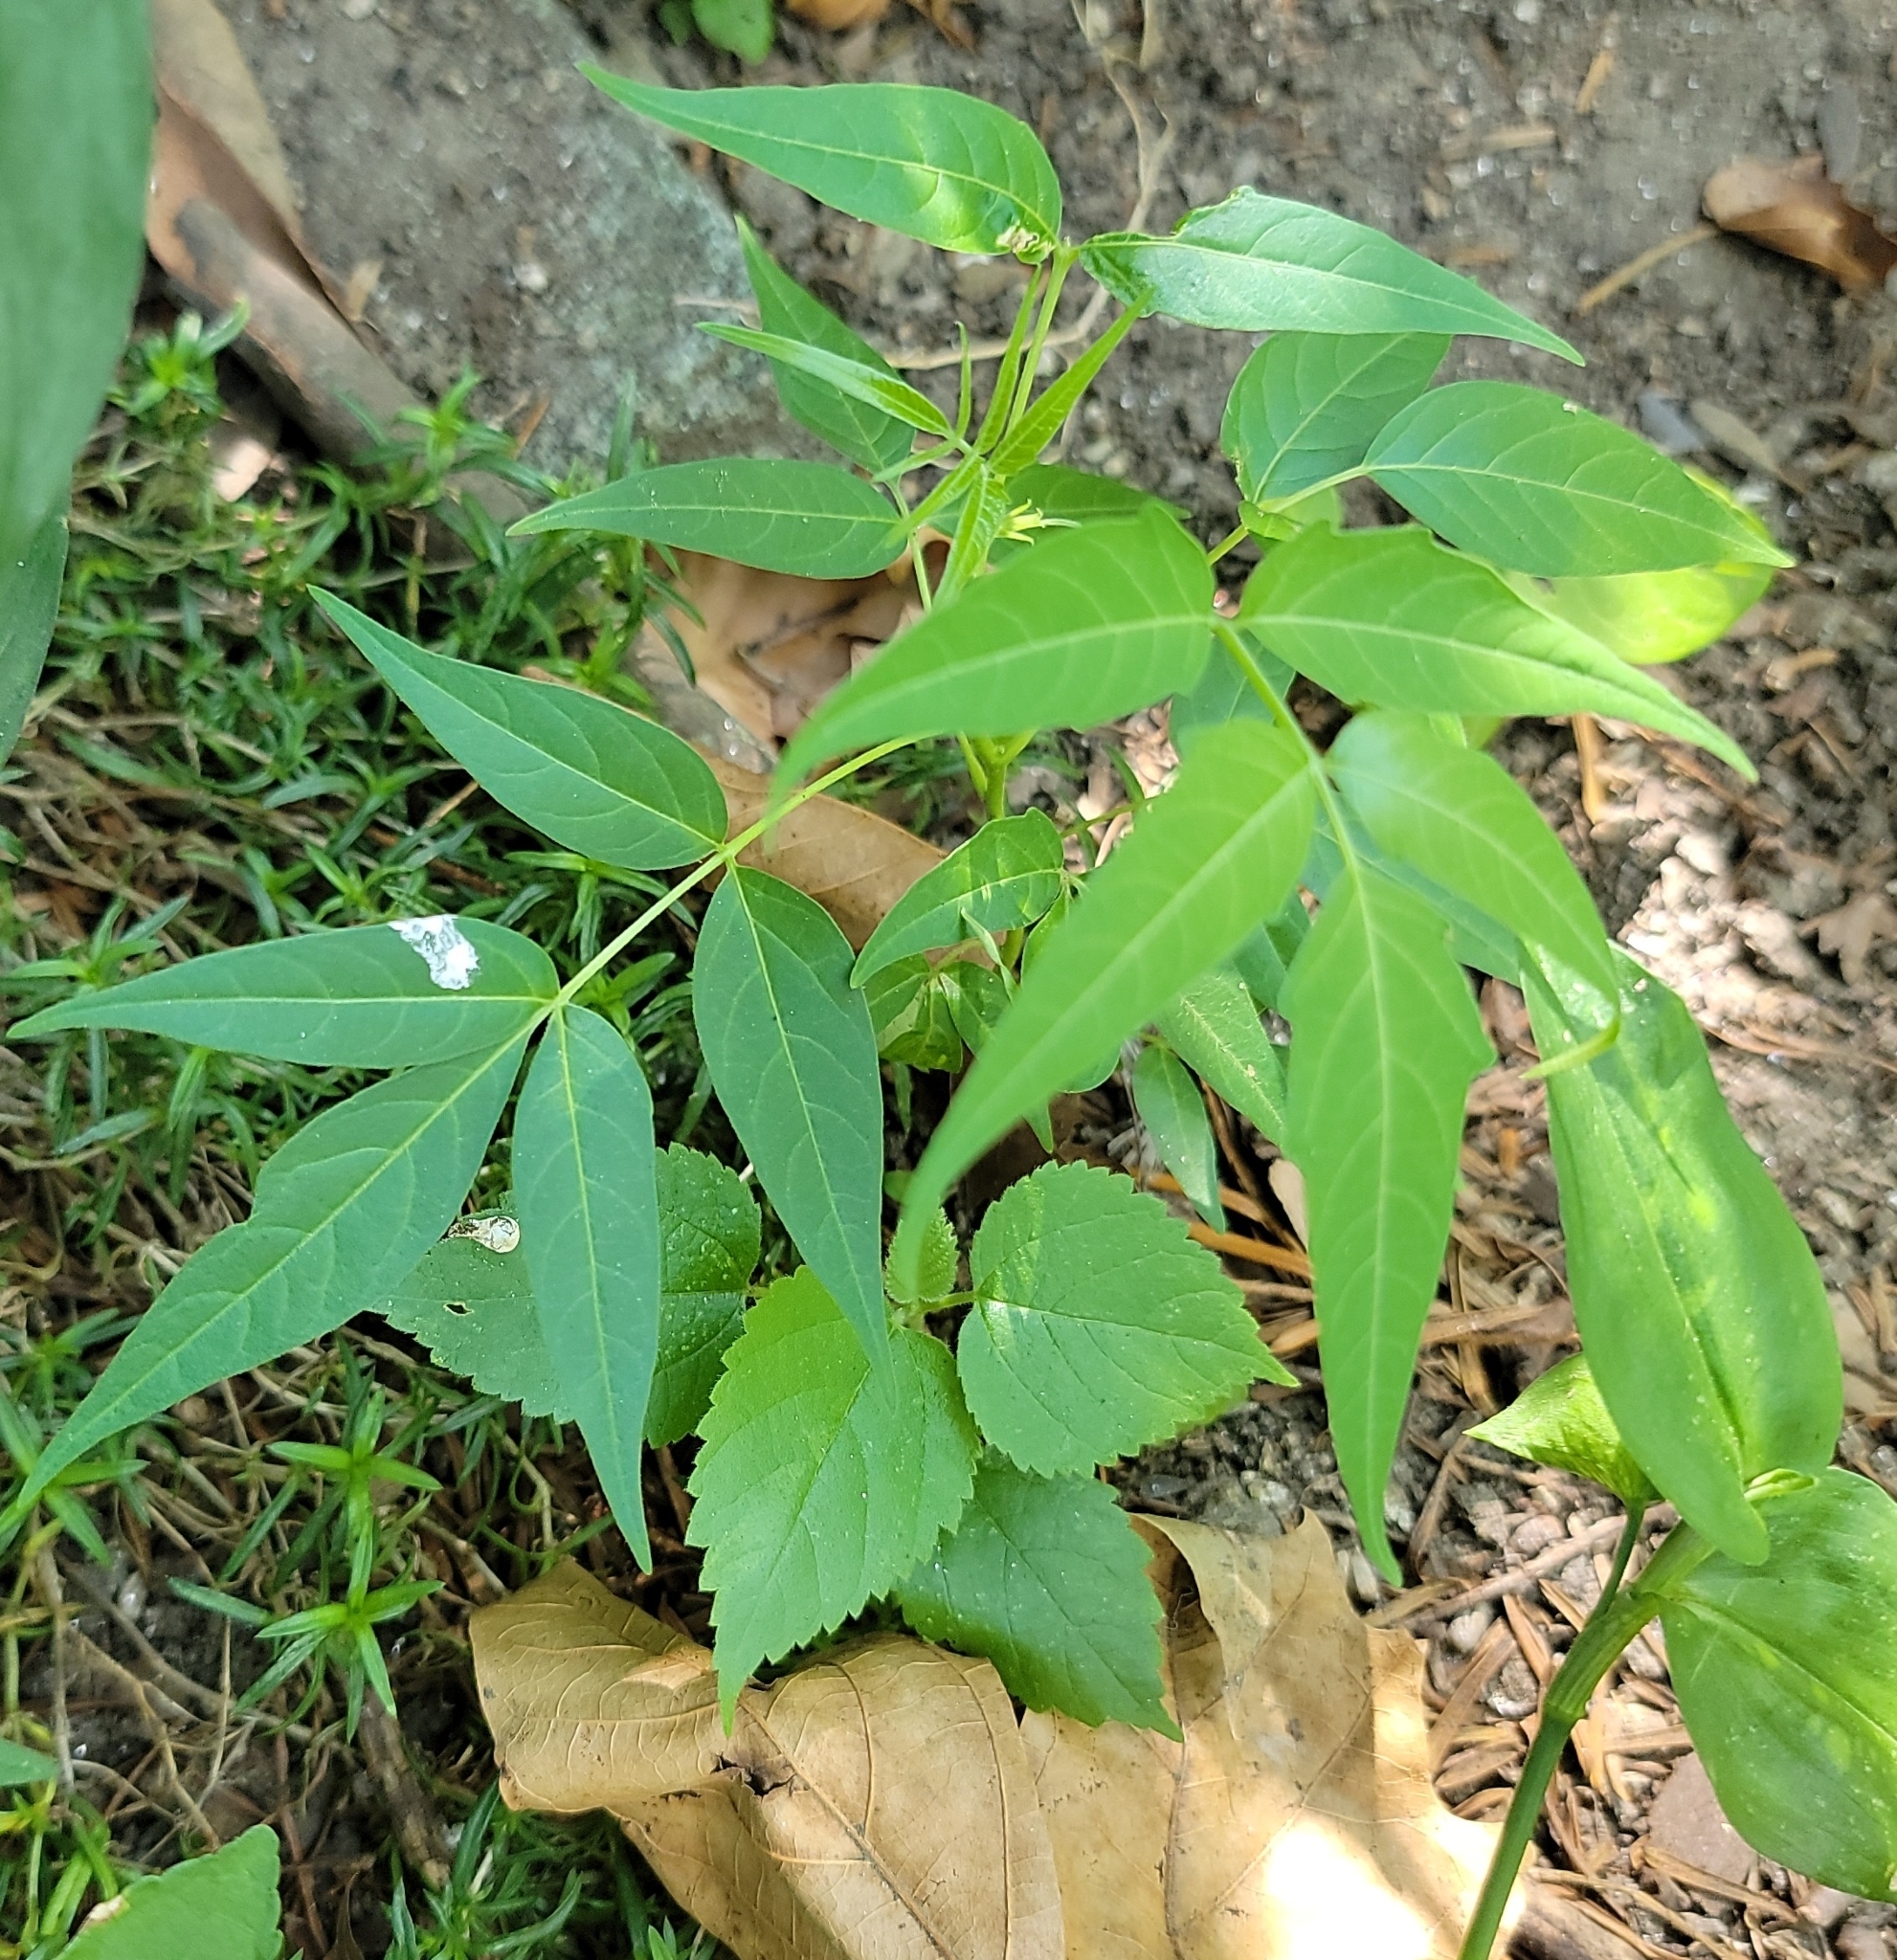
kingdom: Plantae
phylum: Tracheophyta
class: Magnoliopsida
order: Sapindales
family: Simaroubaceae
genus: Ailanthus
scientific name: Ailanthus altissima
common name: Tree-of-heaven
